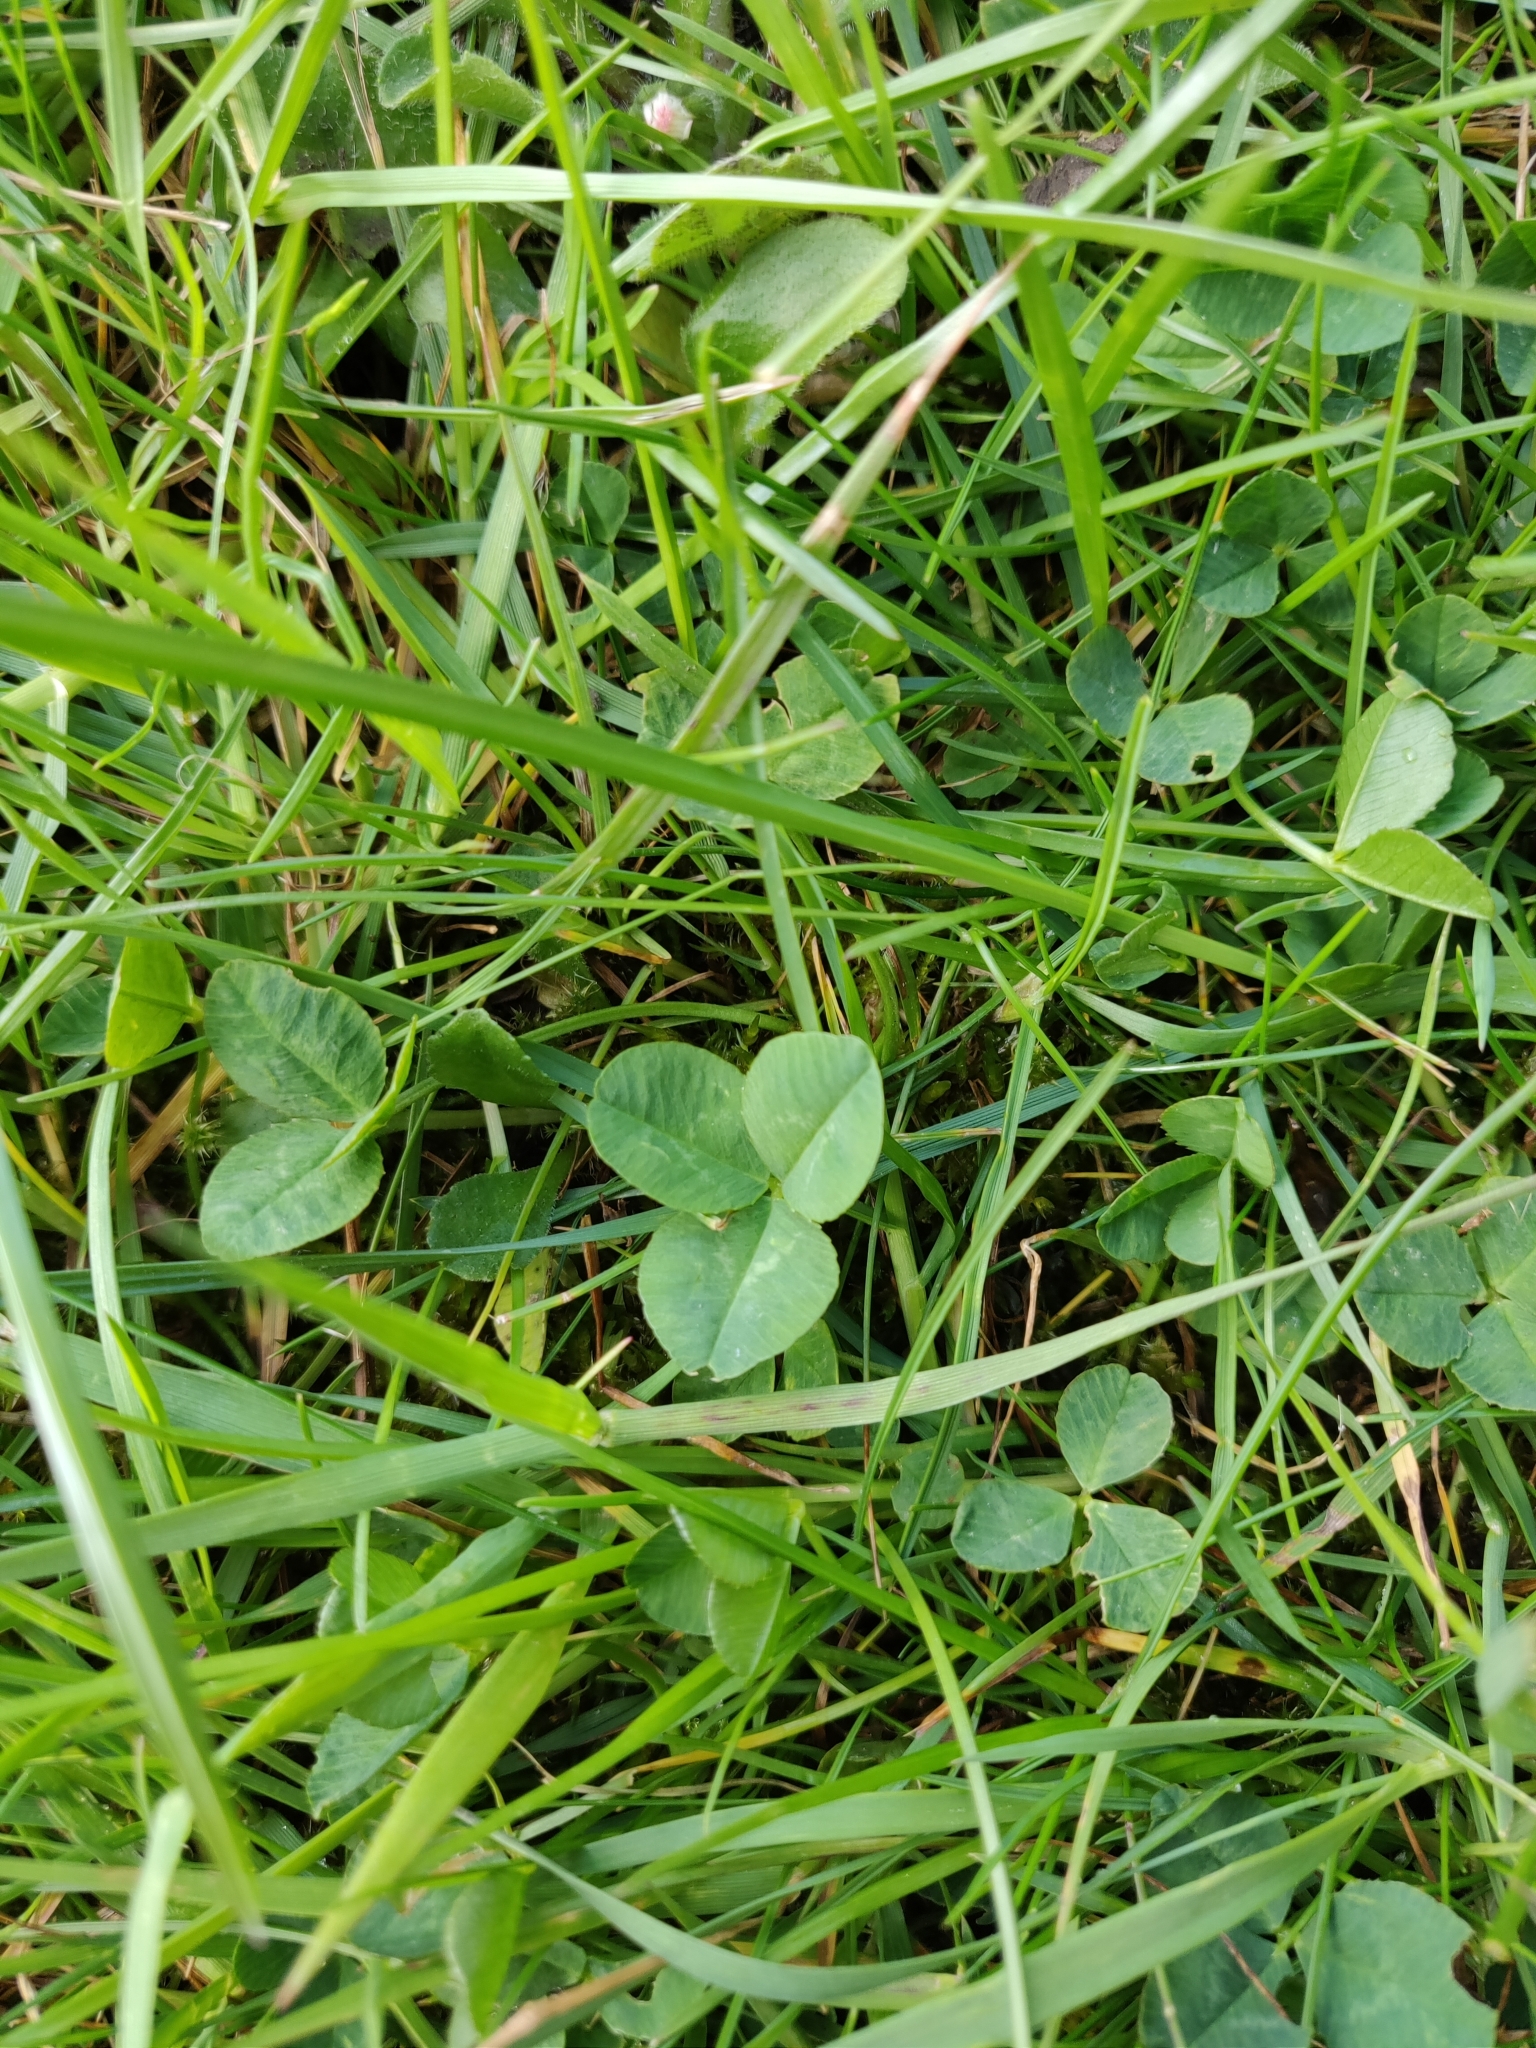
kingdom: Plantae
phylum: Tracheophyta
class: Magnoliopsida
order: Fabales
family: Fabaceae
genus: Trifolium
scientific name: Trifolium repens
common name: White clover
